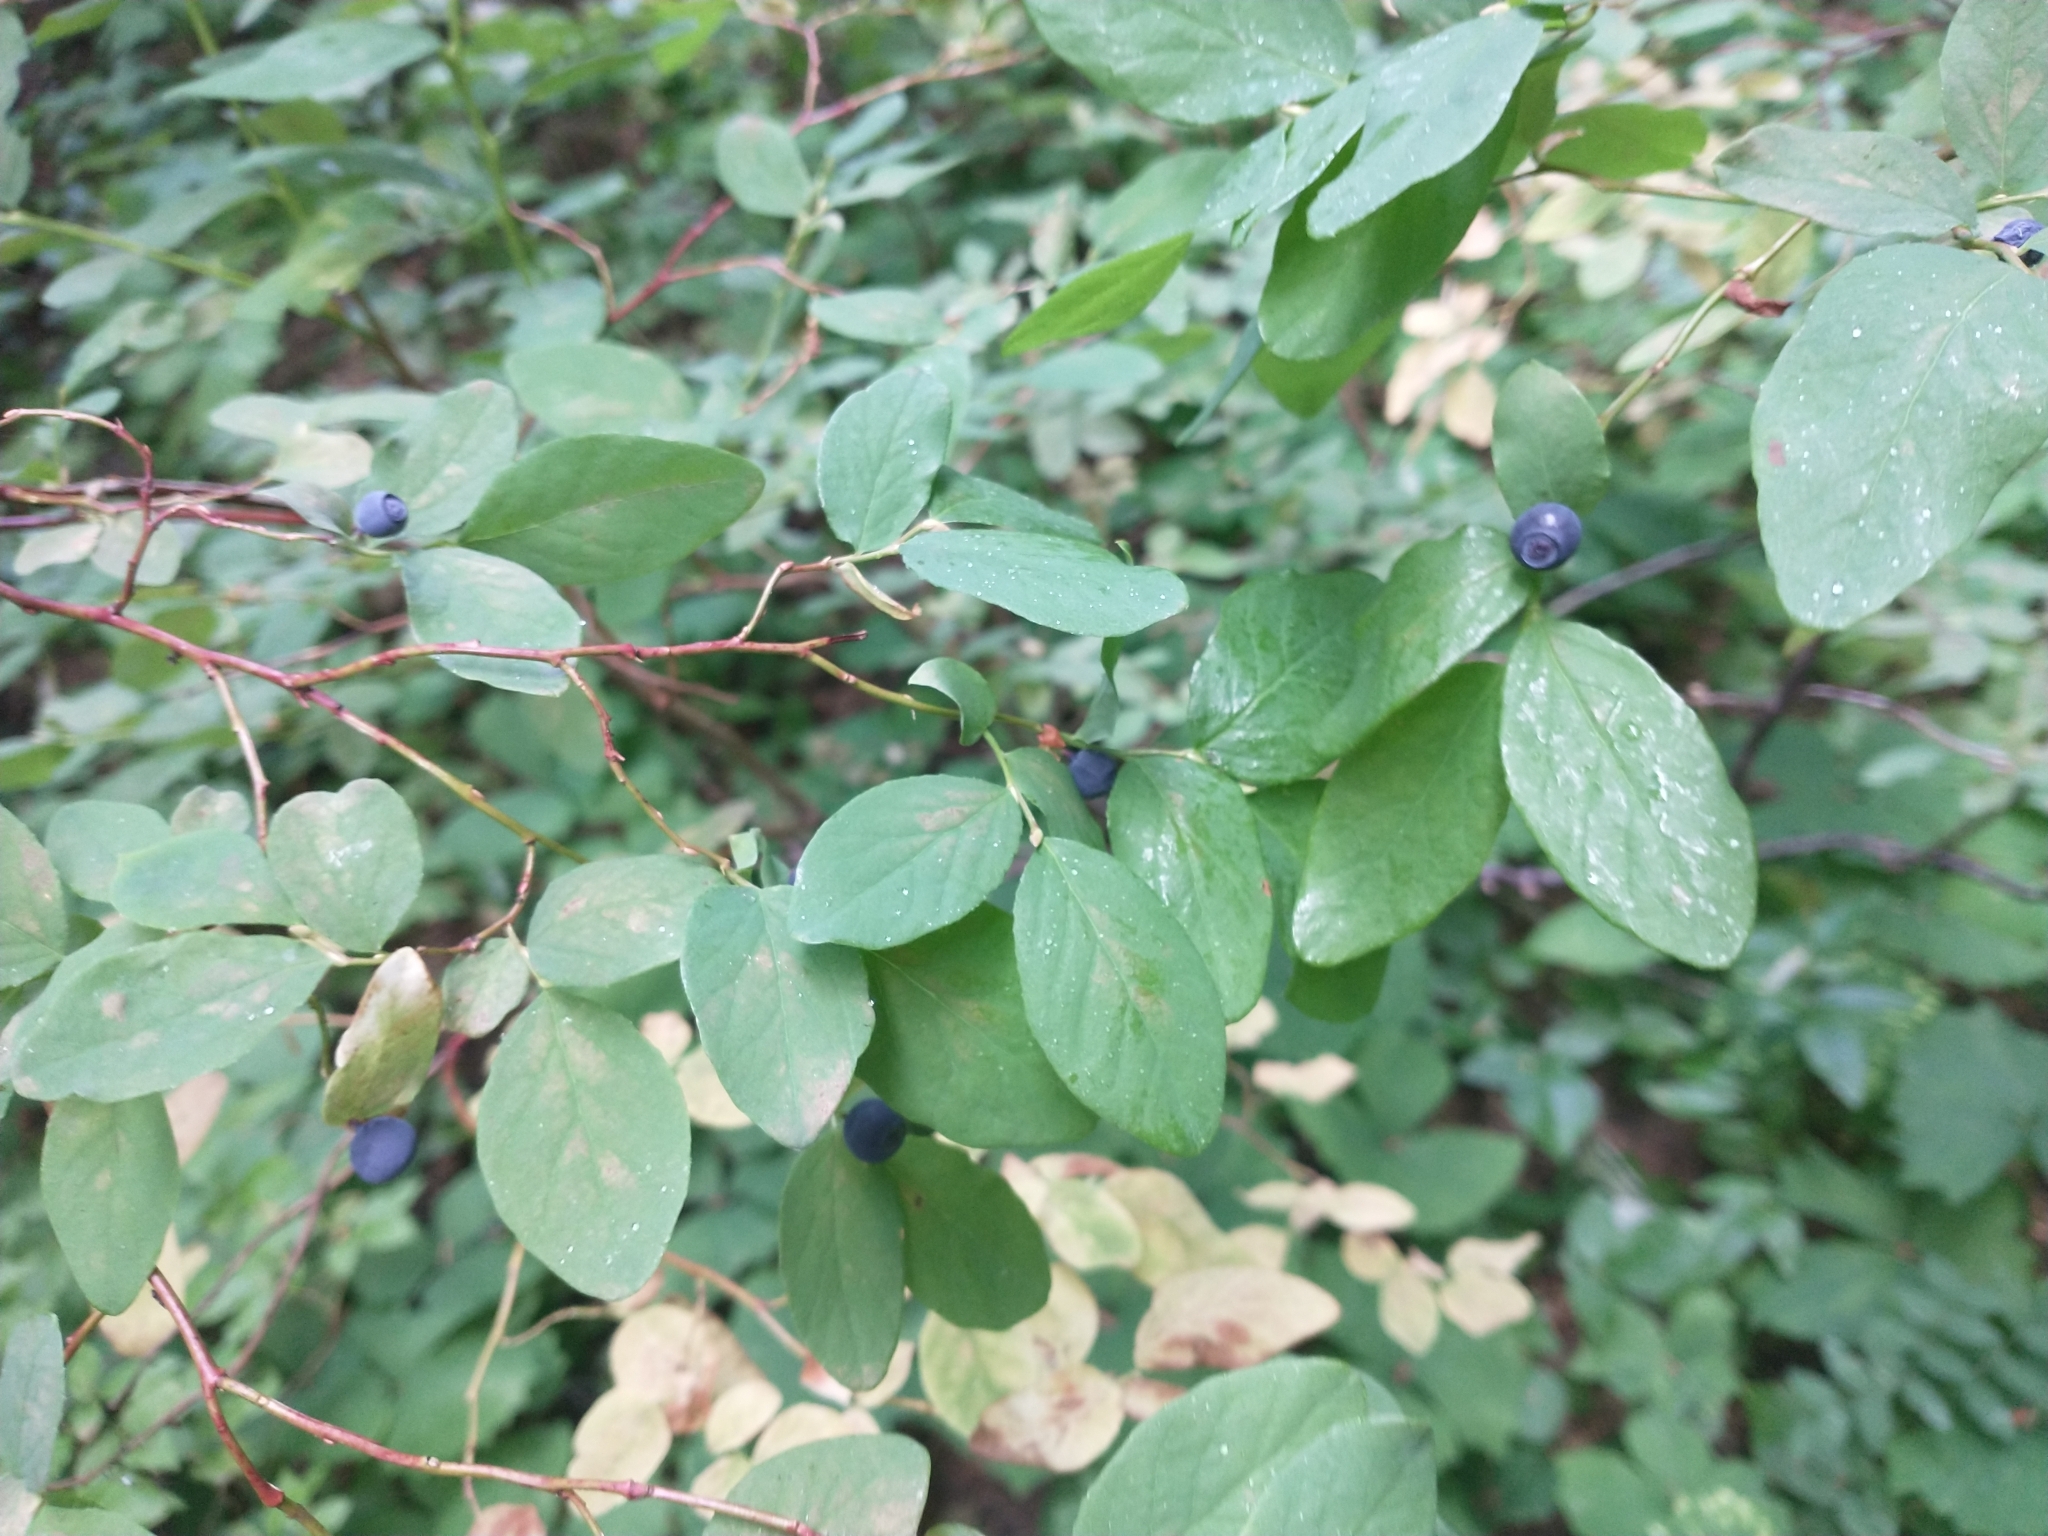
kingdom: Plantae
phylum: Tracheophyta
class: Magnoliopsida
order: Ericales
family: Ericaceae
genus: Vaccinium
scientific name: Vaccinium ovalifolium
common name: Early blueberry
